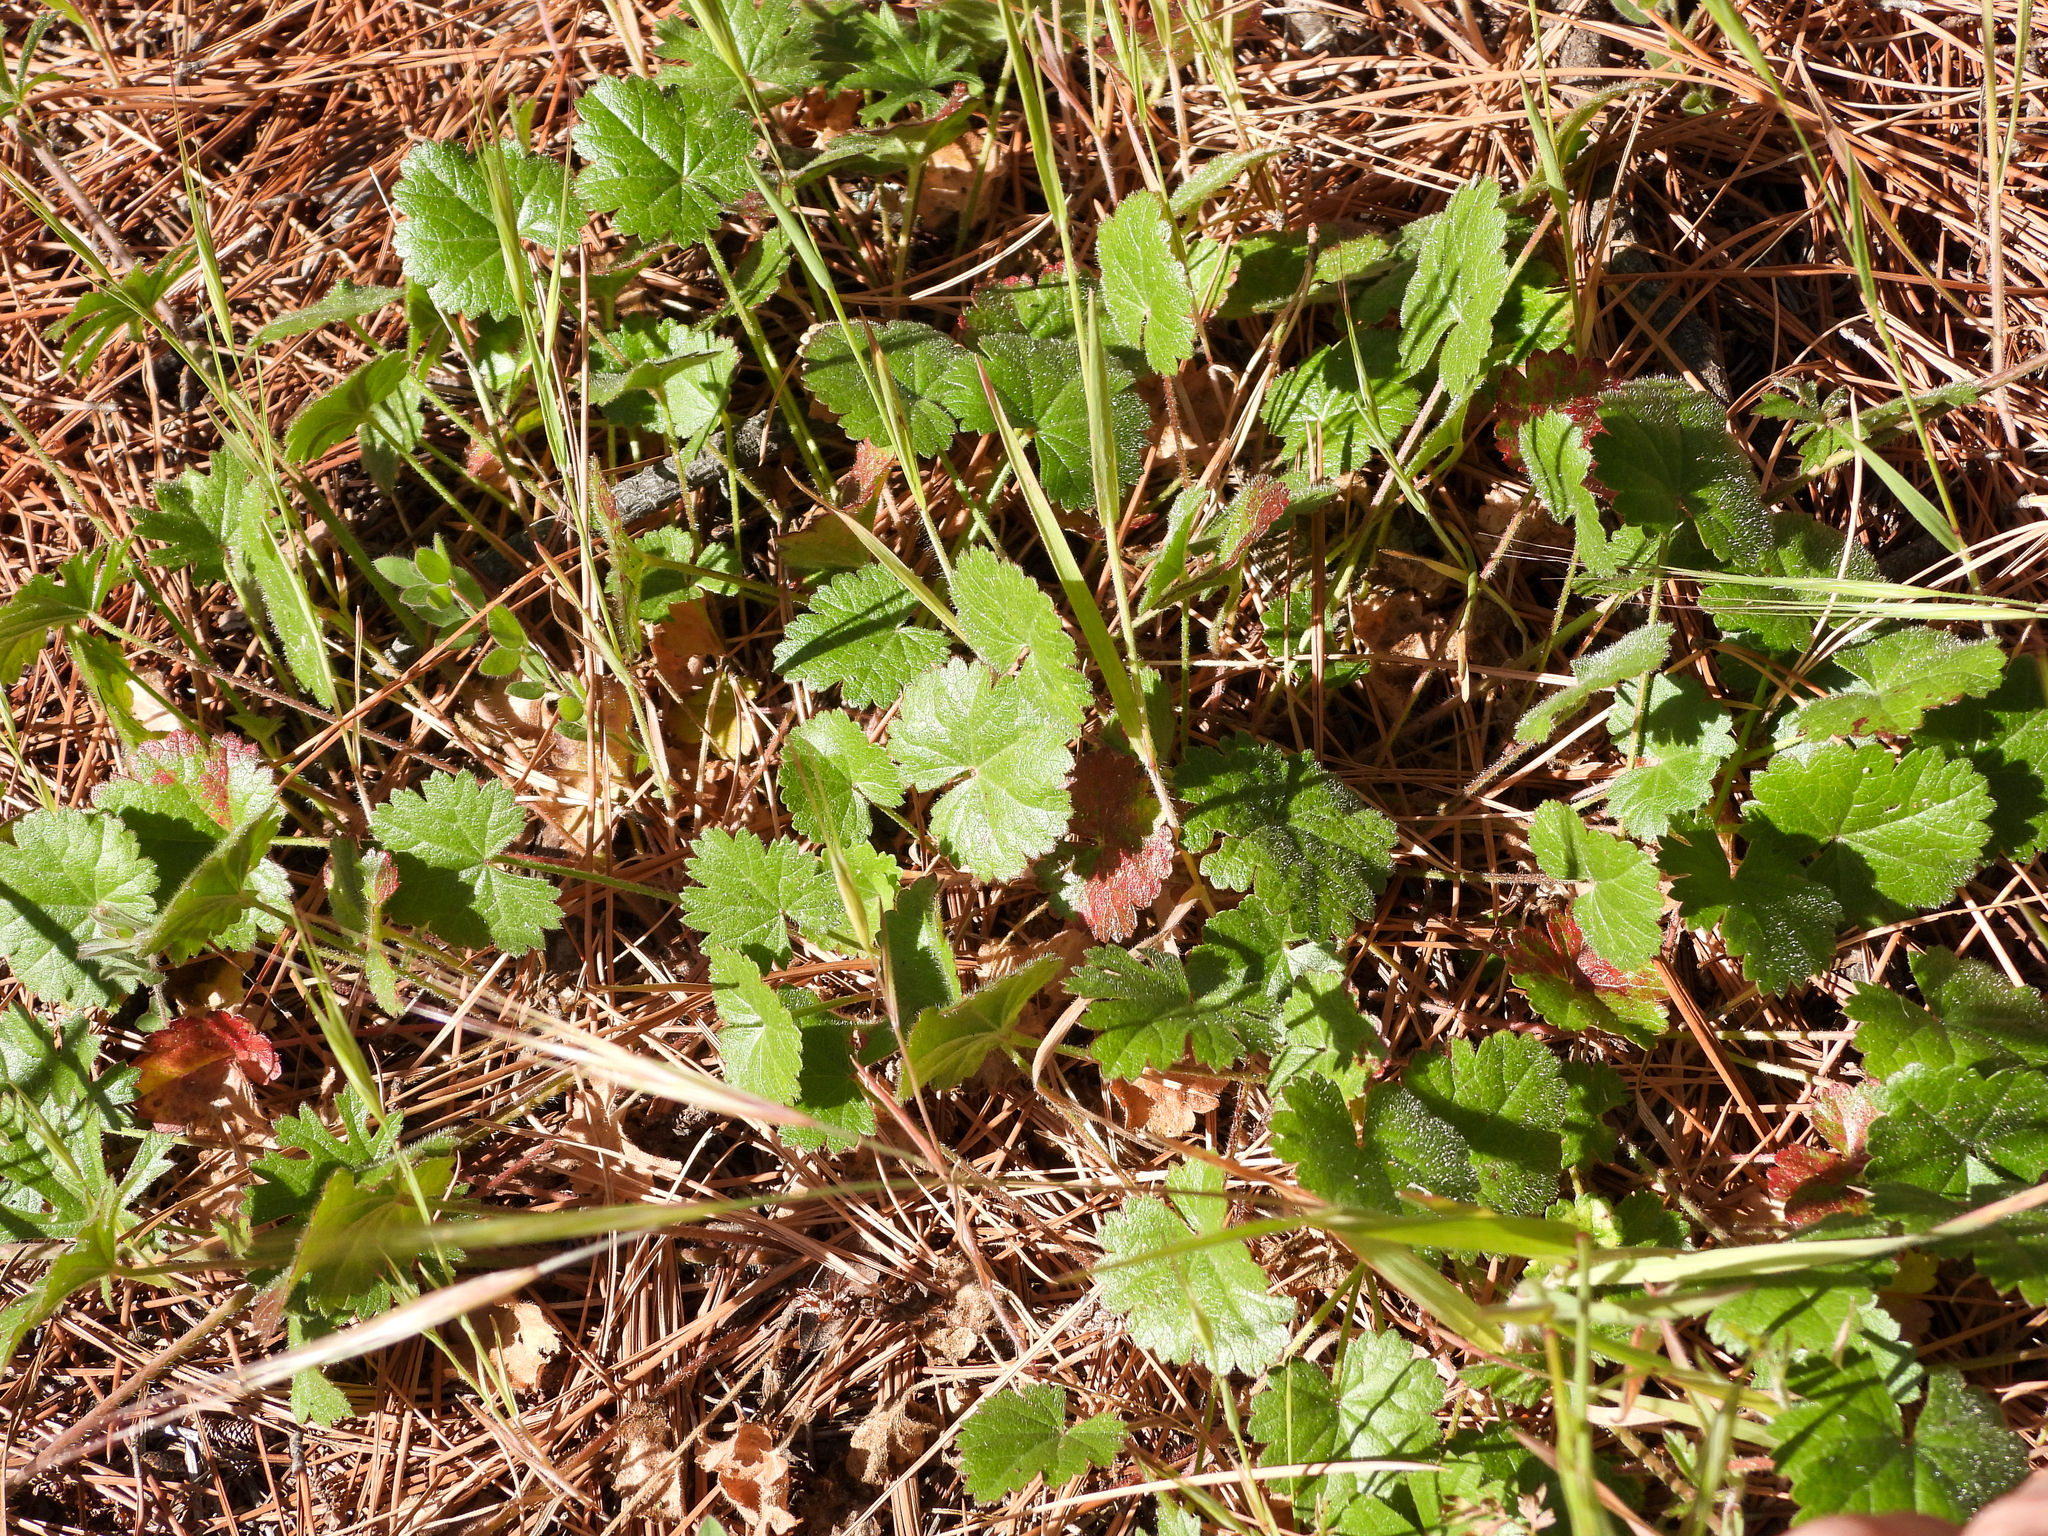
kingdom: Plantae
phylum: Tracheophyta
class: Magnoliopsida
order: Malvales
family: Malvaceae
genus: Sidalcea
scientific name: Sidalcea sparsifolia
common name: Southern checkerbloom
